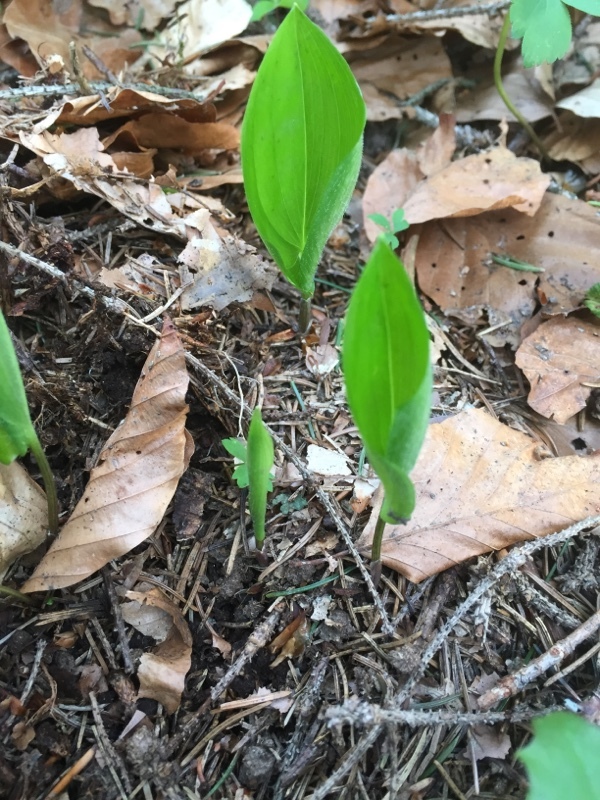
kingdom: Plantae
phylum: Tracheophyta
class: Liliopsida
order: Asparagales
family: Asparagaceae
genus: Maianthemum
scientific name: Maianthemum bifolium
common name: May lily
